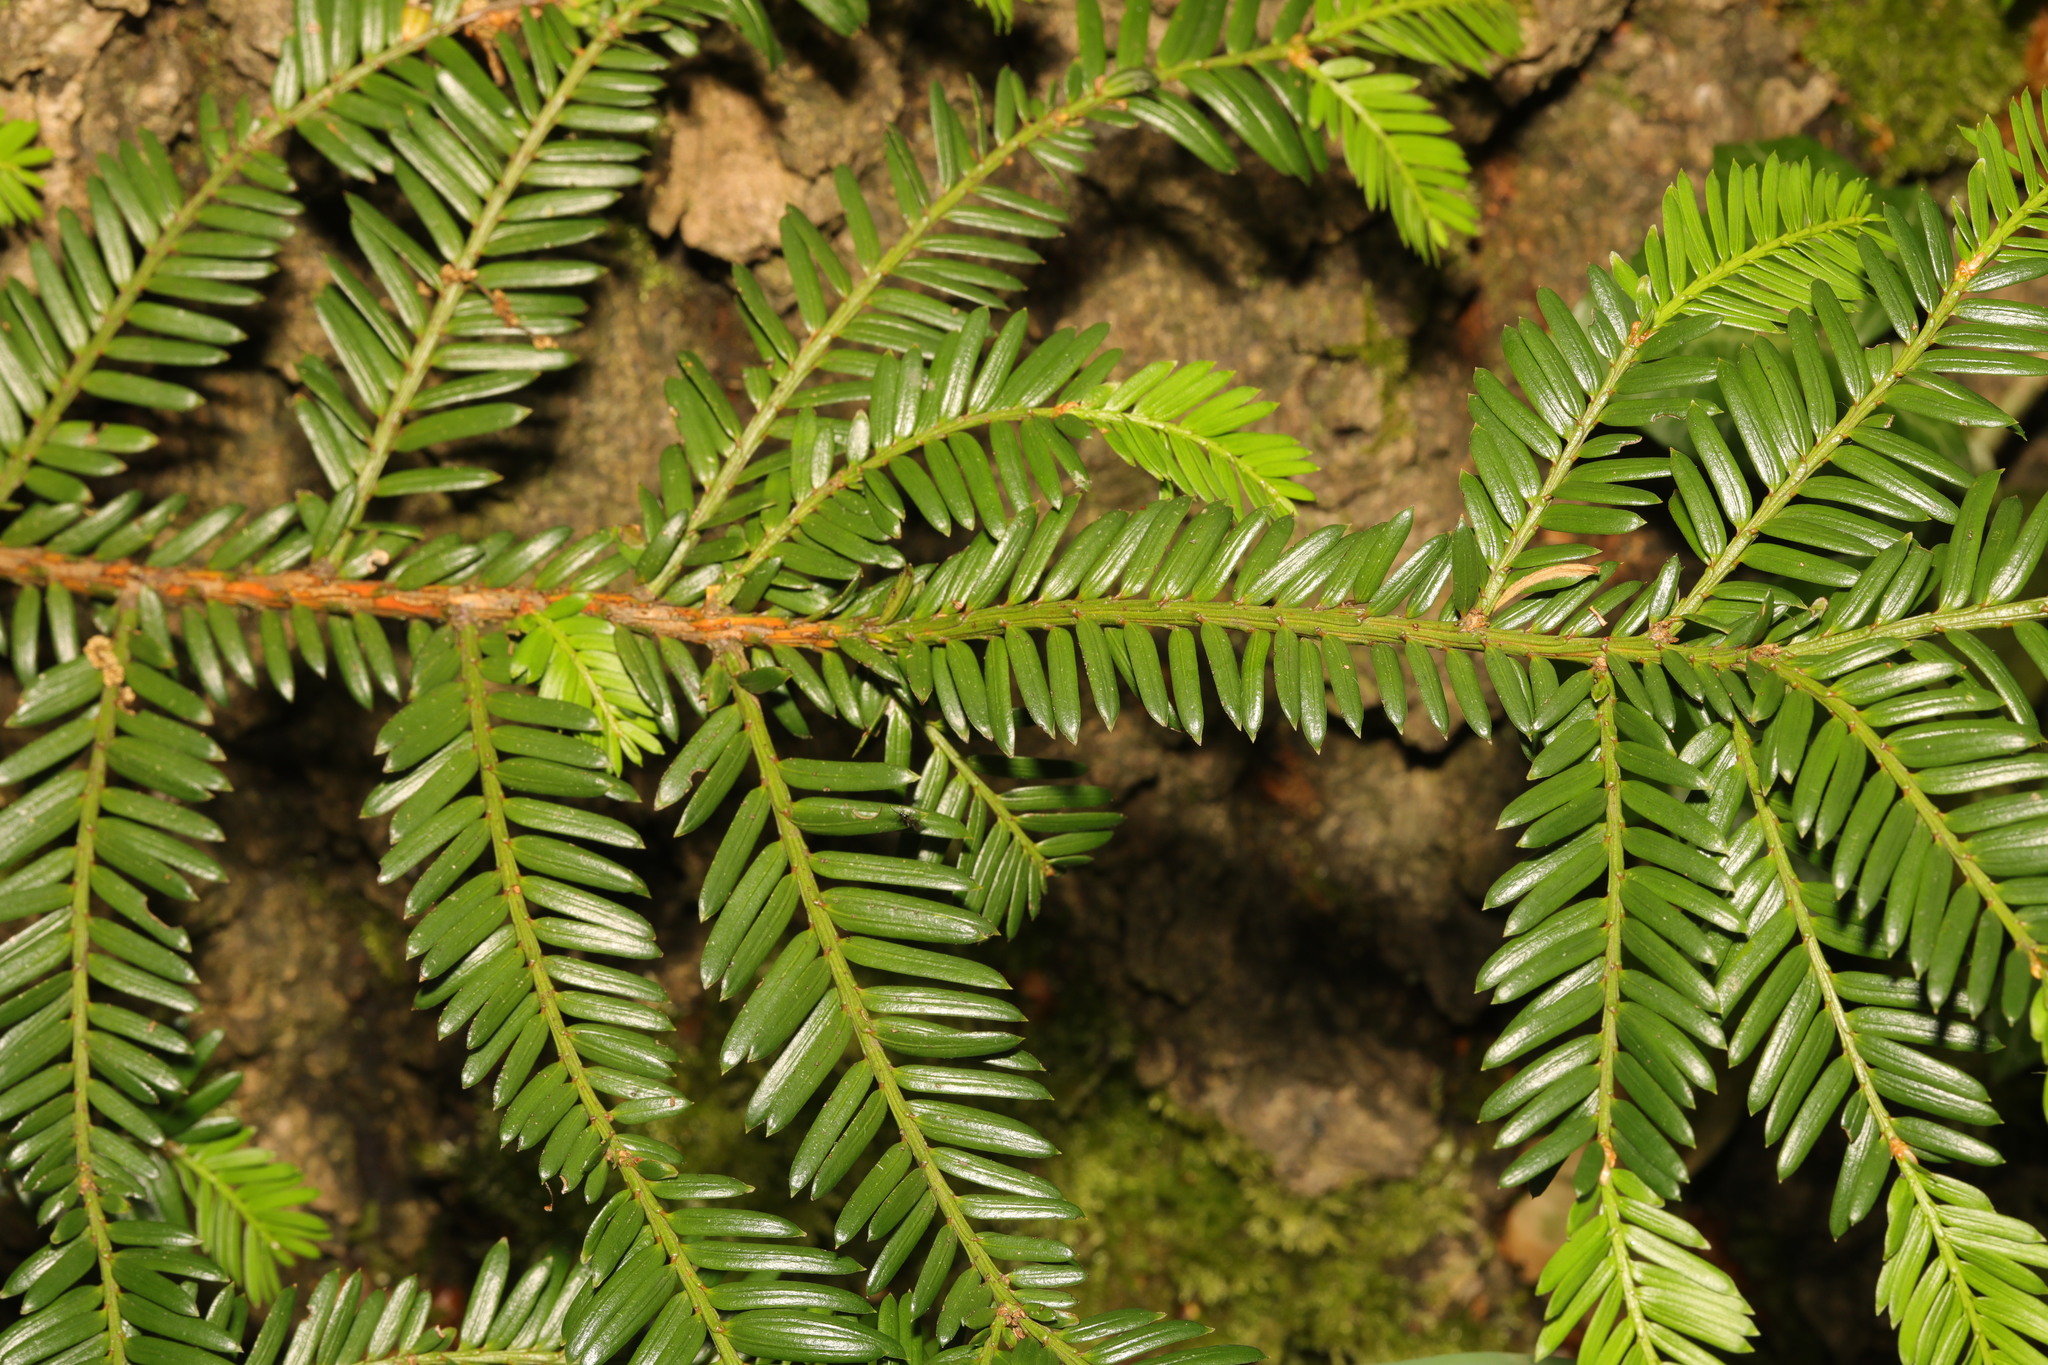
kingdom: Plantae
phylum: Tracheophyta
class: Pinopsida
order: Pinales
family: Taxaceae
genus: Taxus
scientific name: Taxus baccata
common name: Yew
